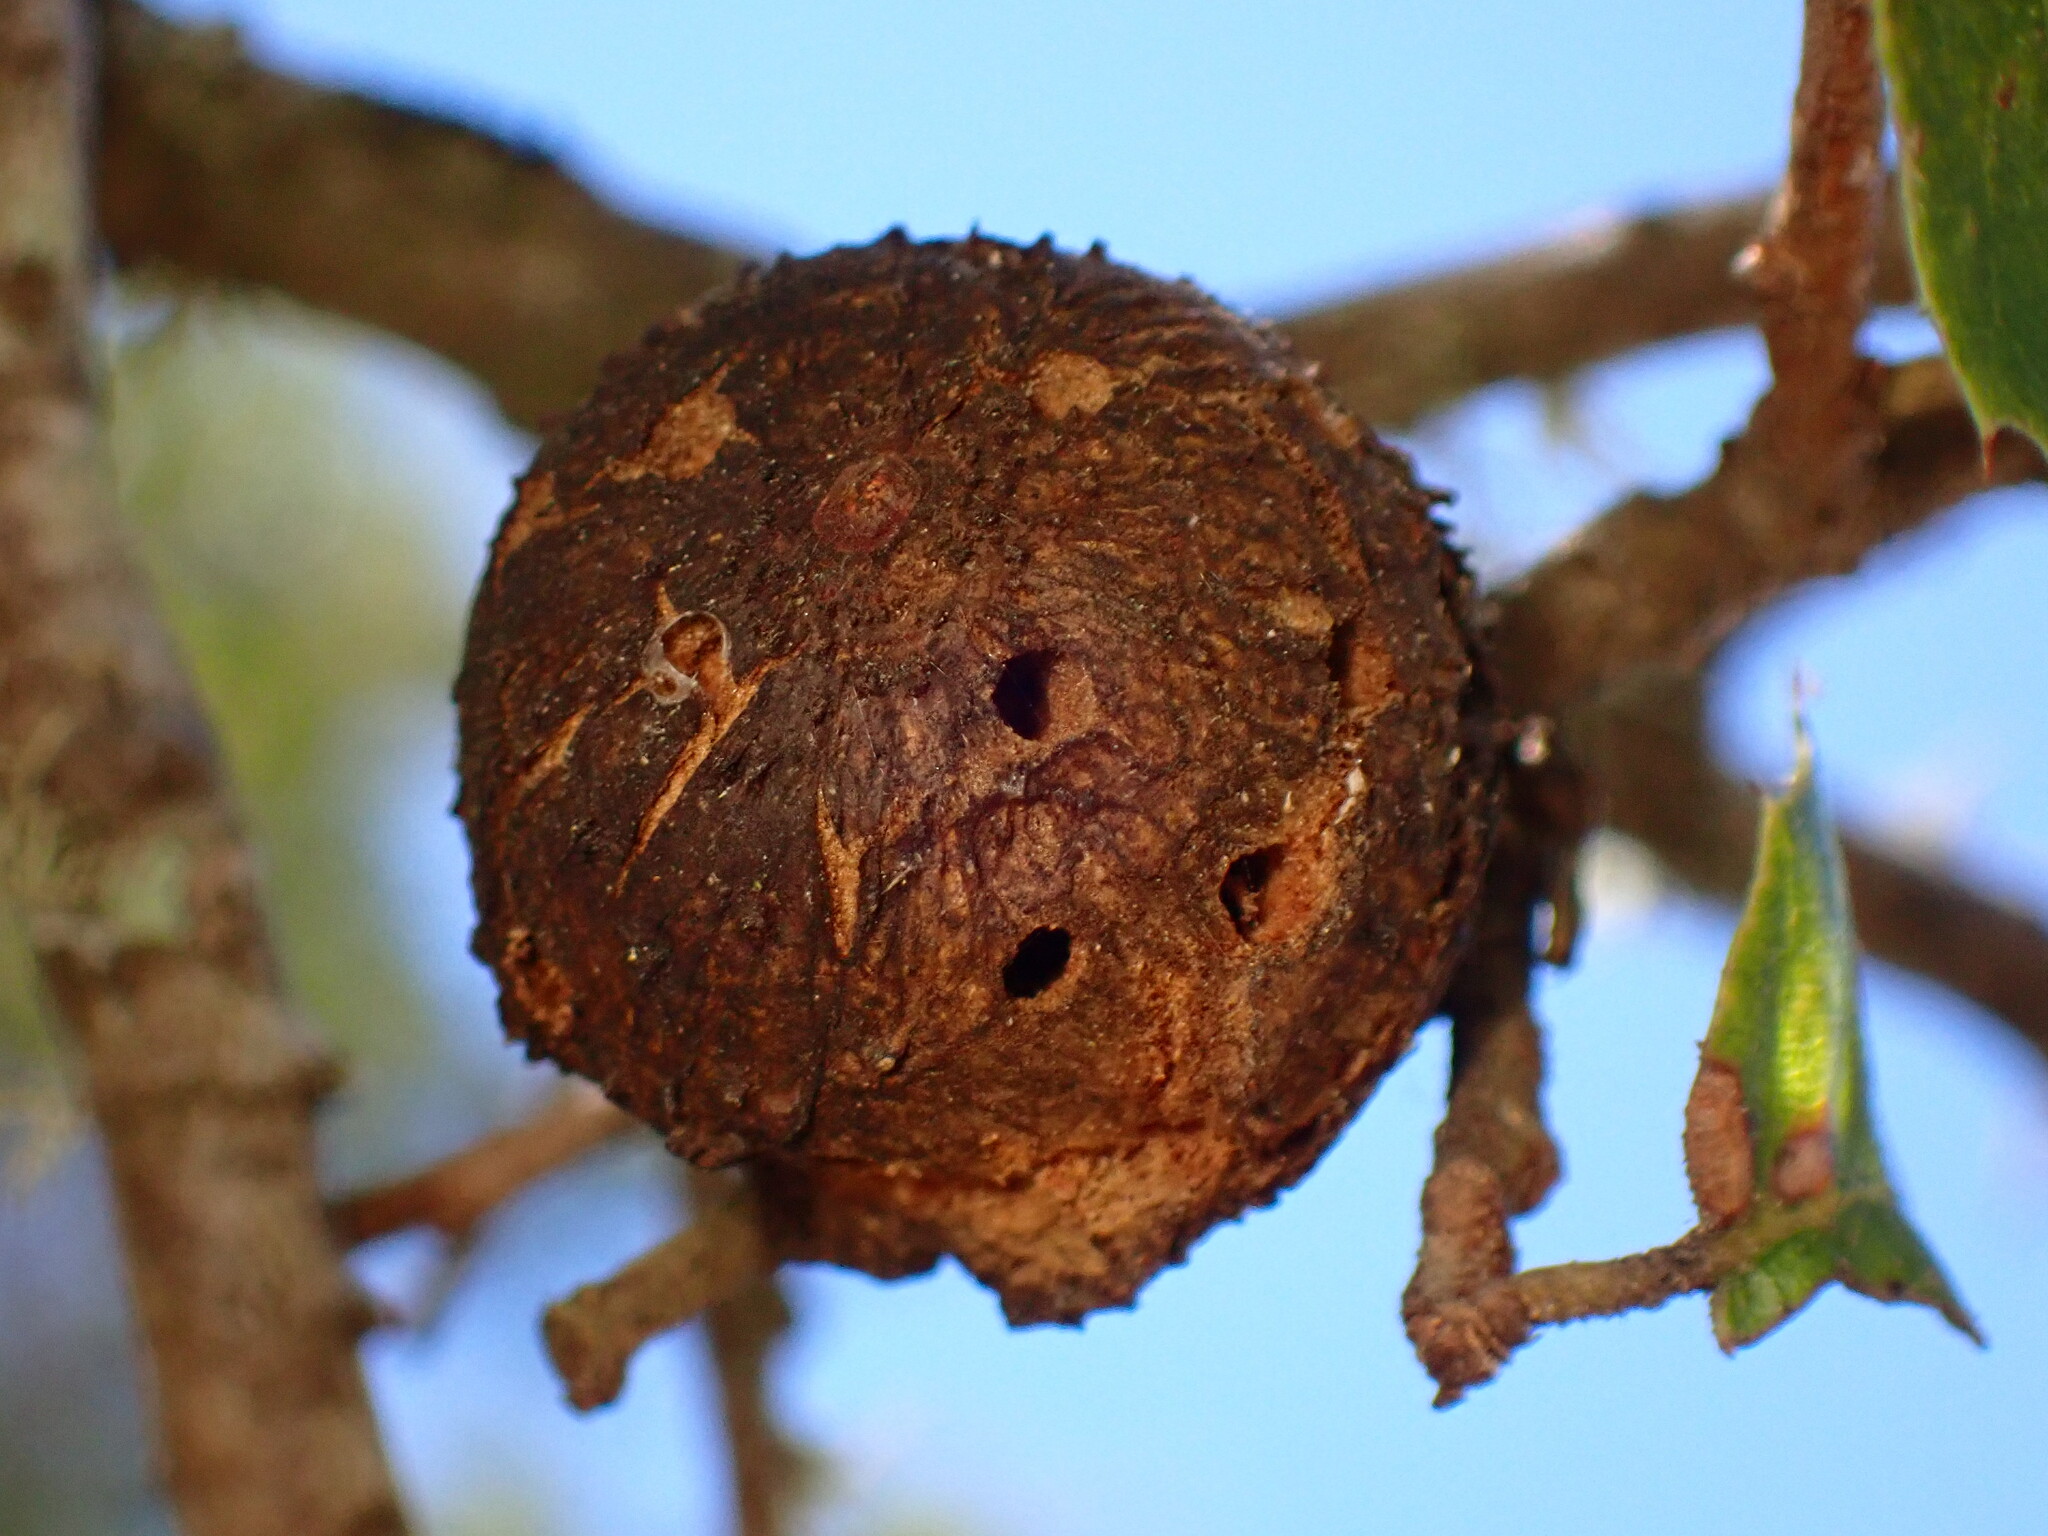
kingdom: Animalia
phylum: Arthropoda
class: Insecta
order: Hymenoptera
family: Cynipidae
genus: Amphibolips
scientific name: Amphibolips quercuspomiformis
